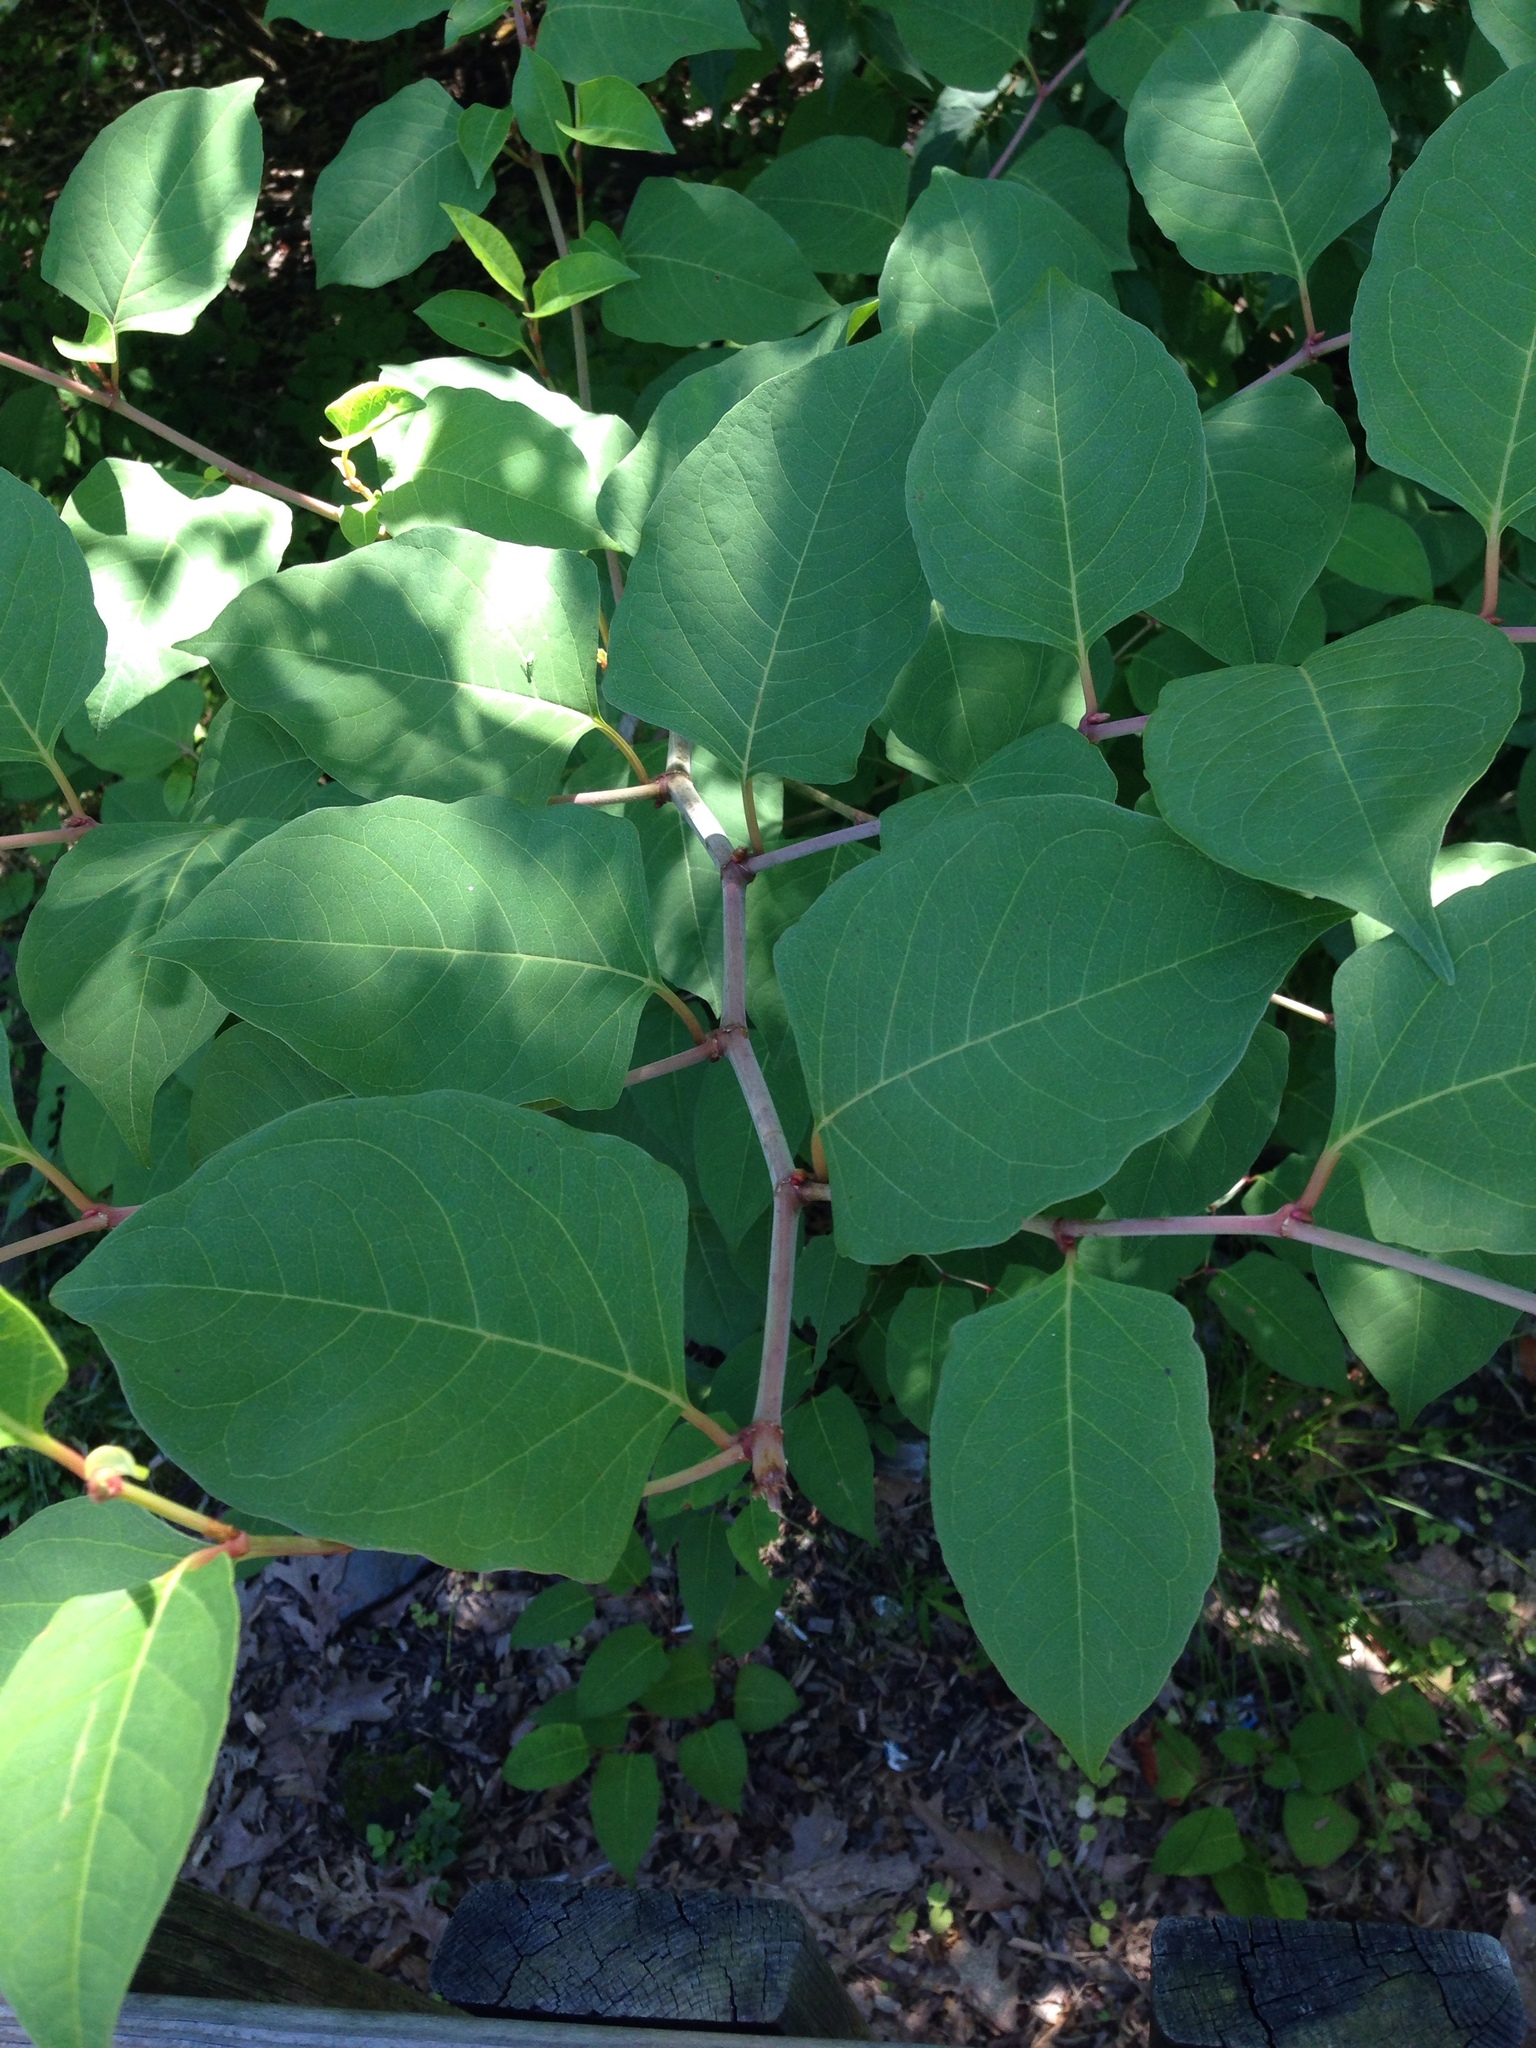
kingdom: Plantae
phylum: Tracheophyta
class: Magnoliopsida
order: Caryophyllales
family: Polygonaceae
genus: Reynoutria
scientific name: Reynoutria japonica
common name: Japanese knotweed
